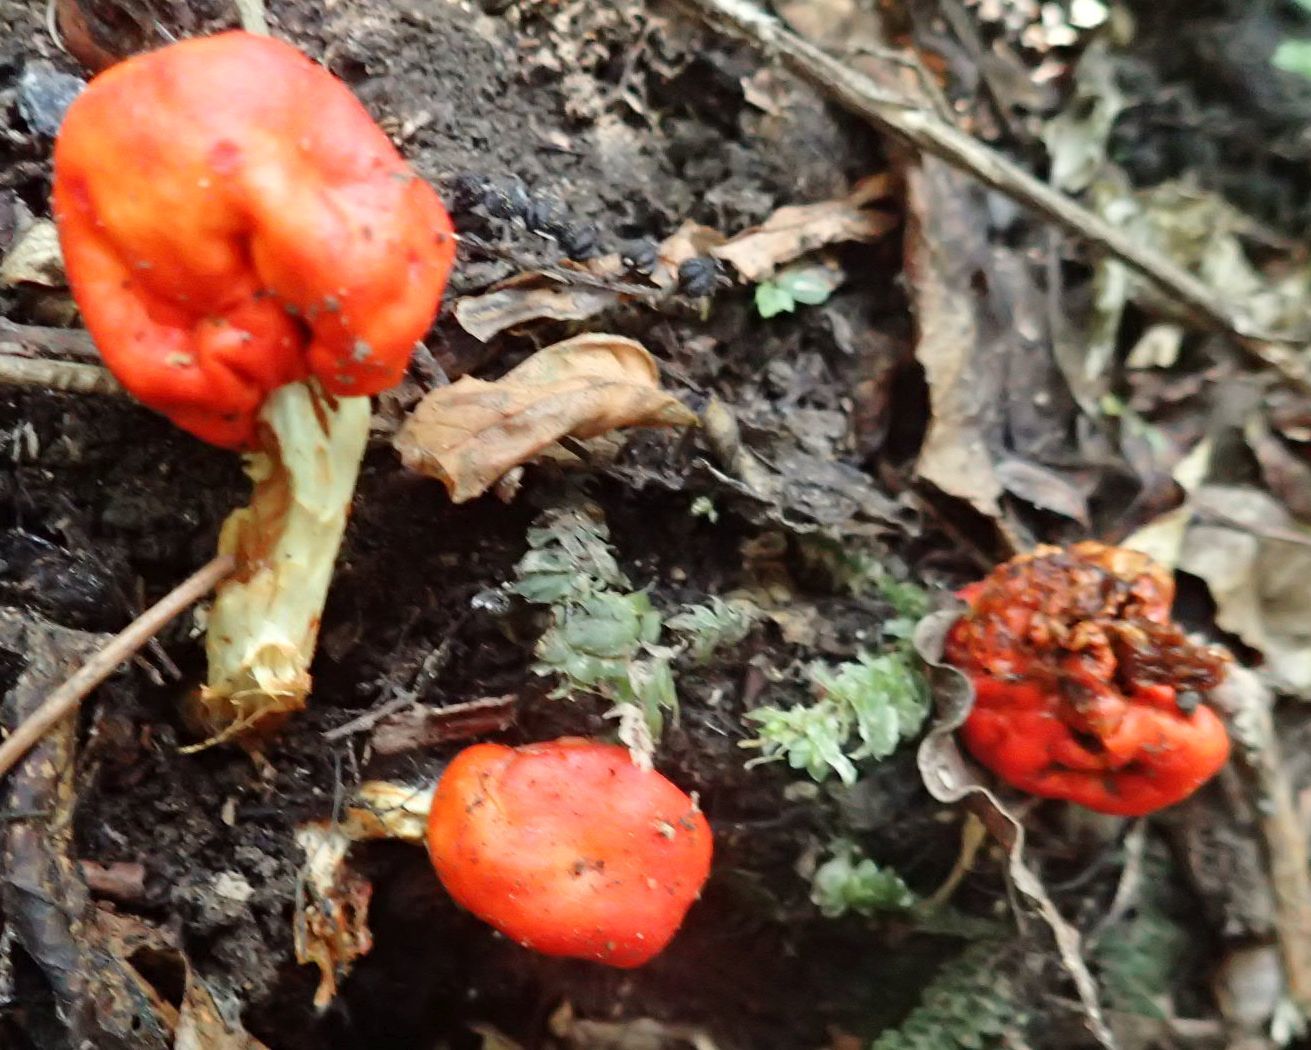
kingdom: Fungi
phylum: Basidiomycota
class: Agaricomycetes
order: Agaricales
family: Strophariaceae
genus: Leratiomyces
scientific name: Leratiomyces erythrocephalus
